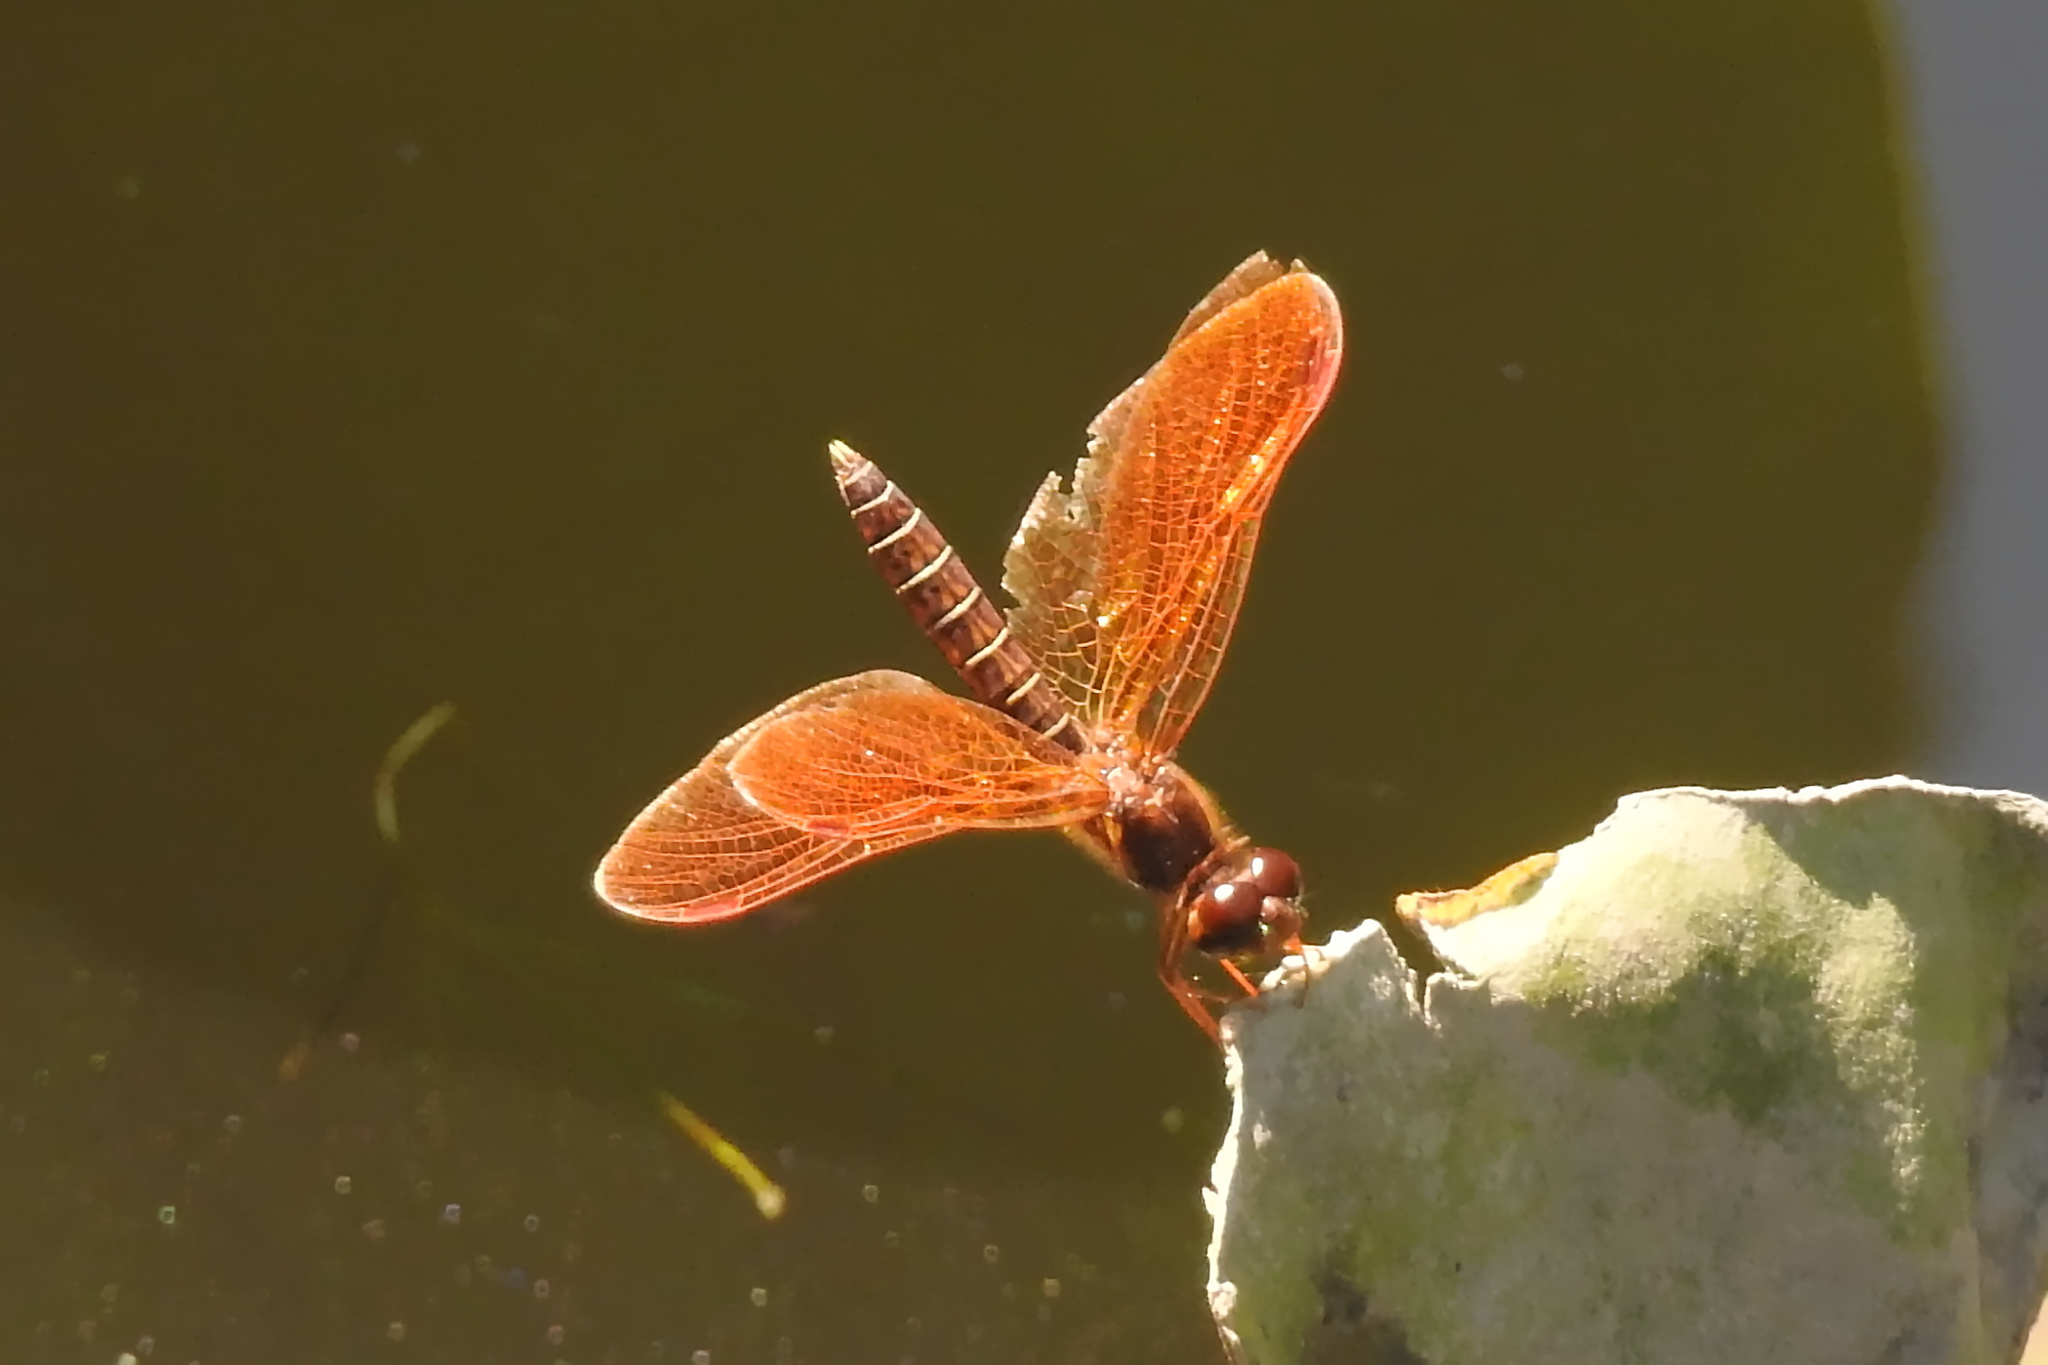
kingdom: Animalia
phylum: Arthropoda
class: Insecta
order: Odonata
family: Libellulidae
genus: Perithemis
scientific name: Perithemis tenera
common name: Eastern amberwing
